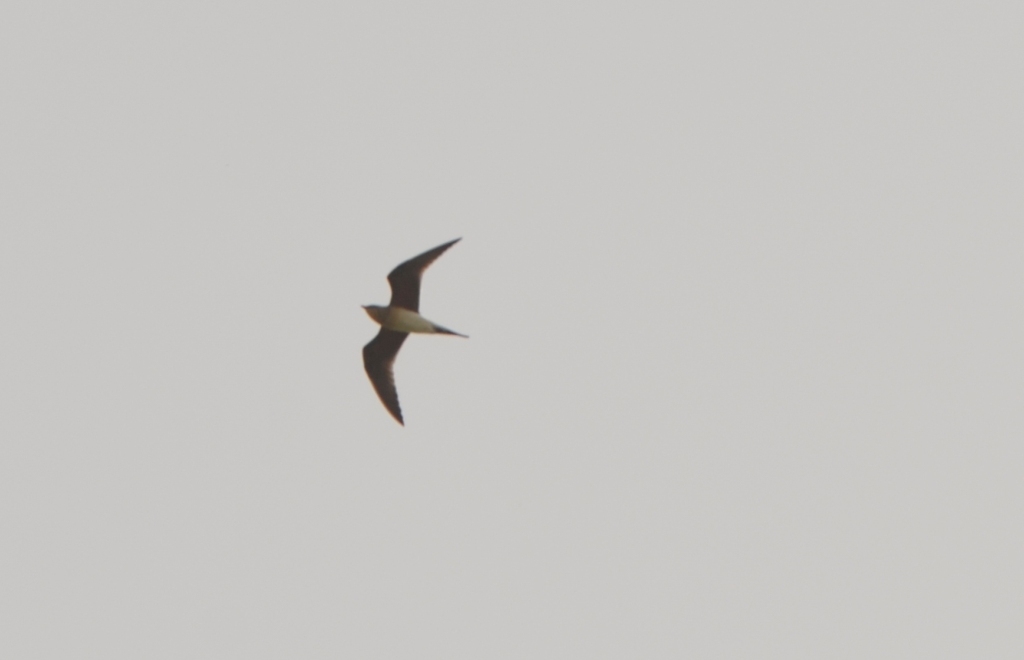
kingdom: Animalia
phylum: Chordata
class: Aves
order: Charadriiformes
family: Glareolidae
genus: Glareola
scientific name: Glareola pratincola
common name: Collared pratincole
